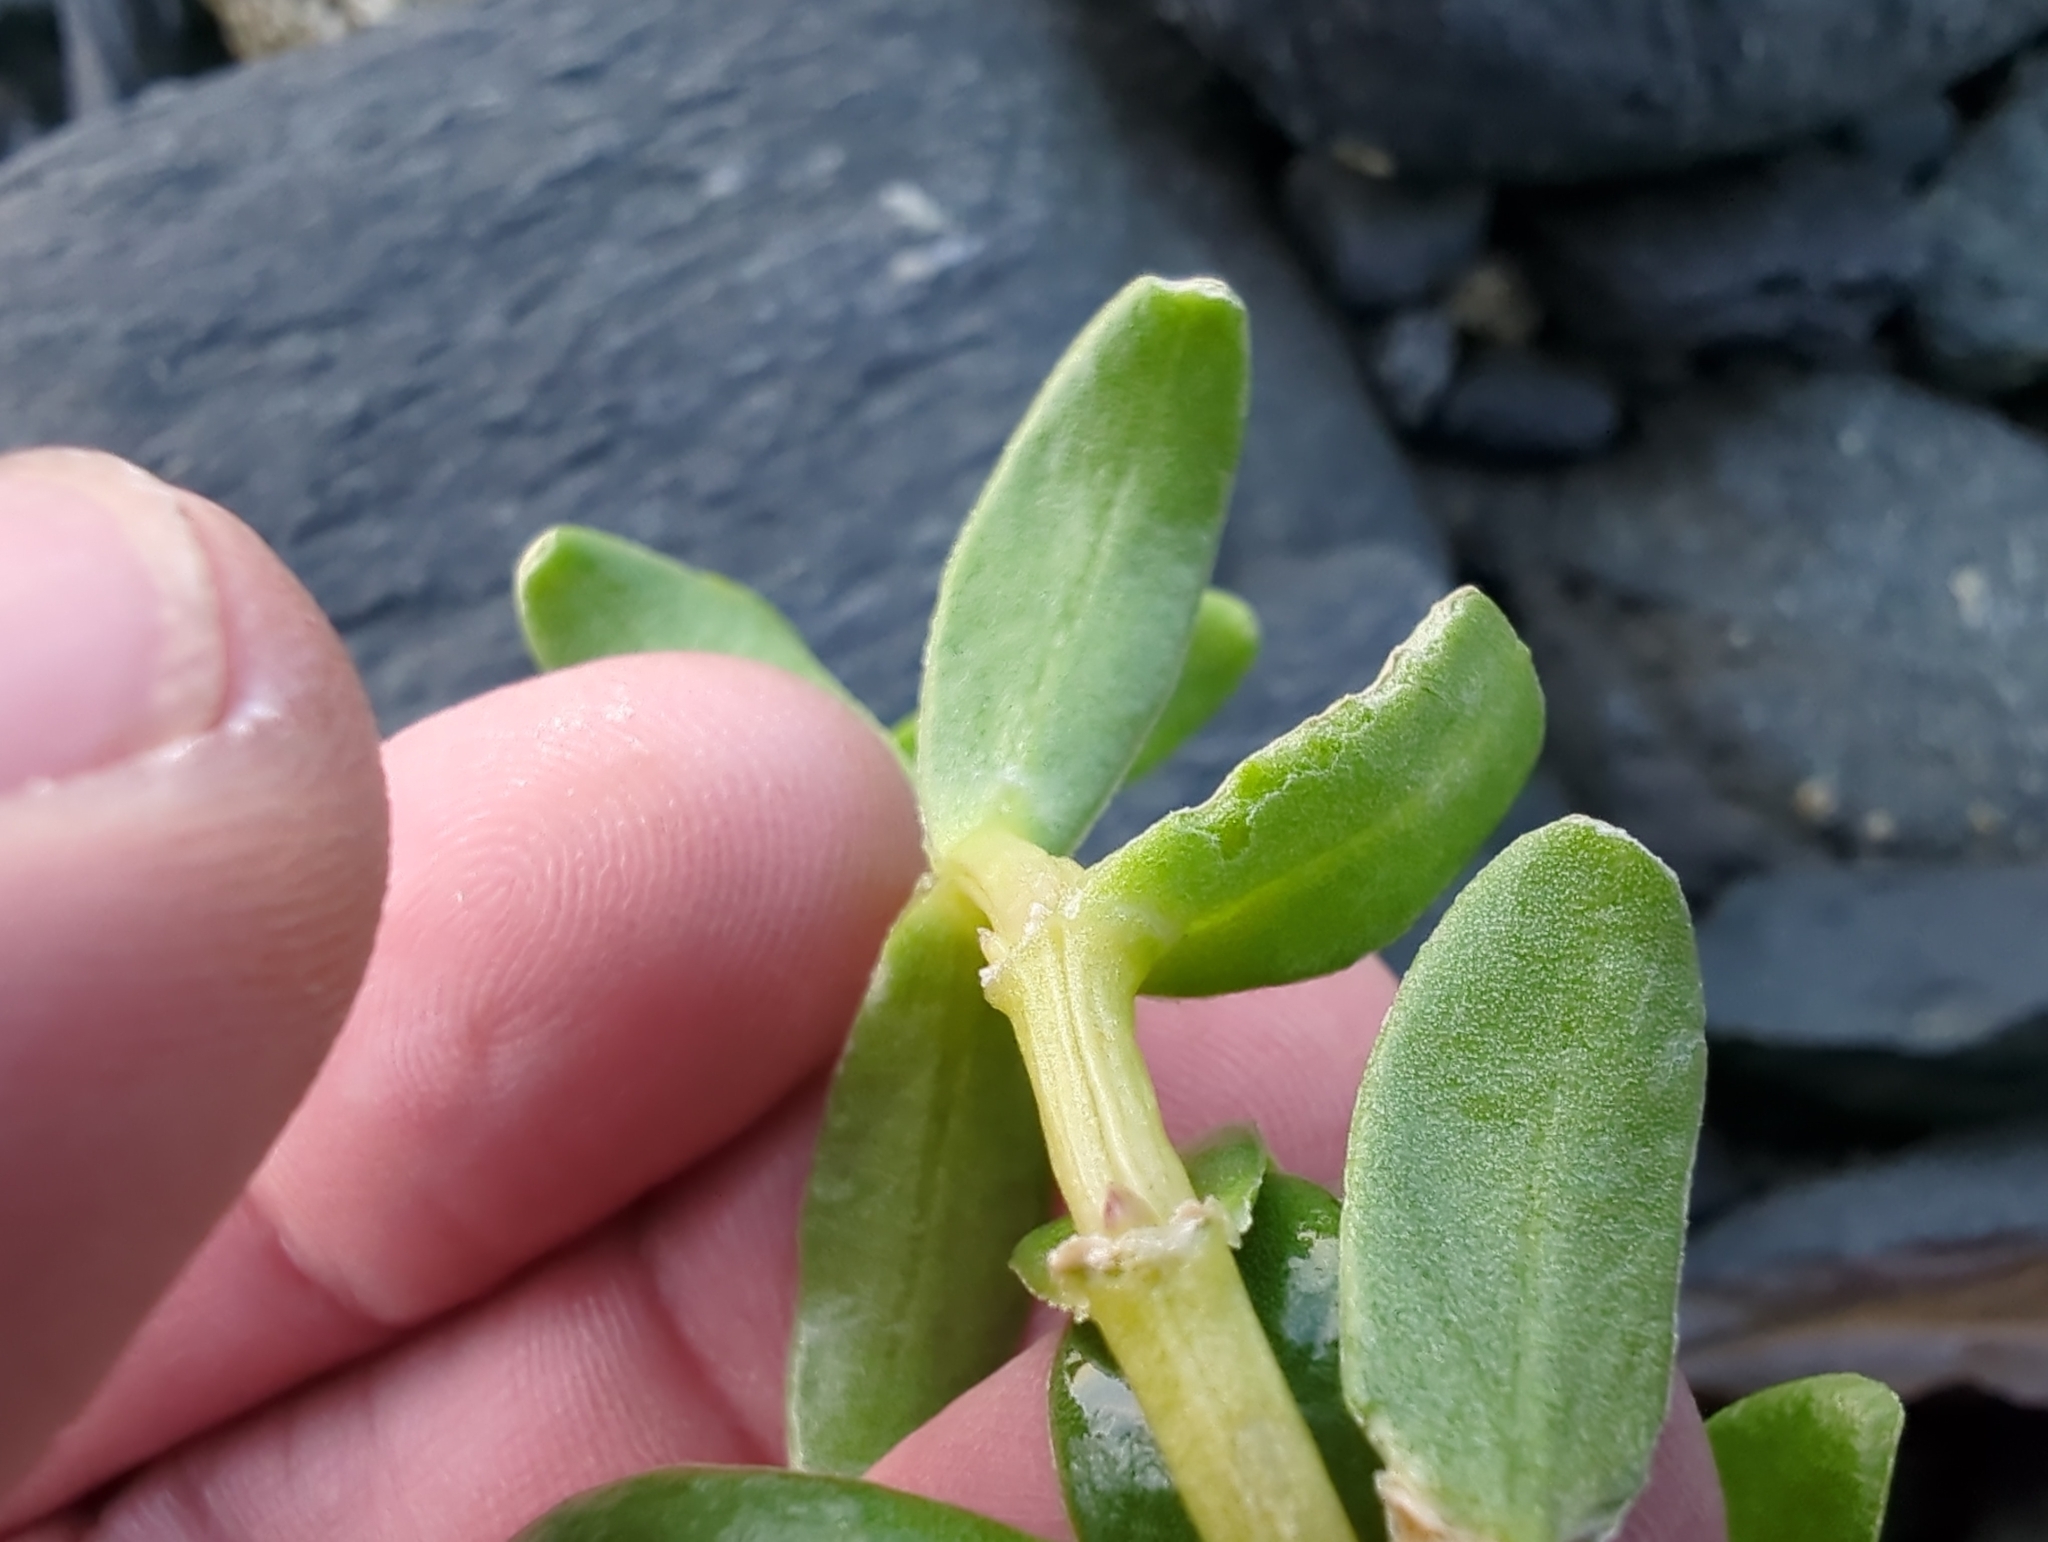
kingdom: Plantae
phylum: Tracheophyta
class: Magnoliopsida
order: Caryophyllales
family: Caryophyllaceae
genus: Honckenya
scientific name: Honckenya peploides
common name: Sea sandwort
